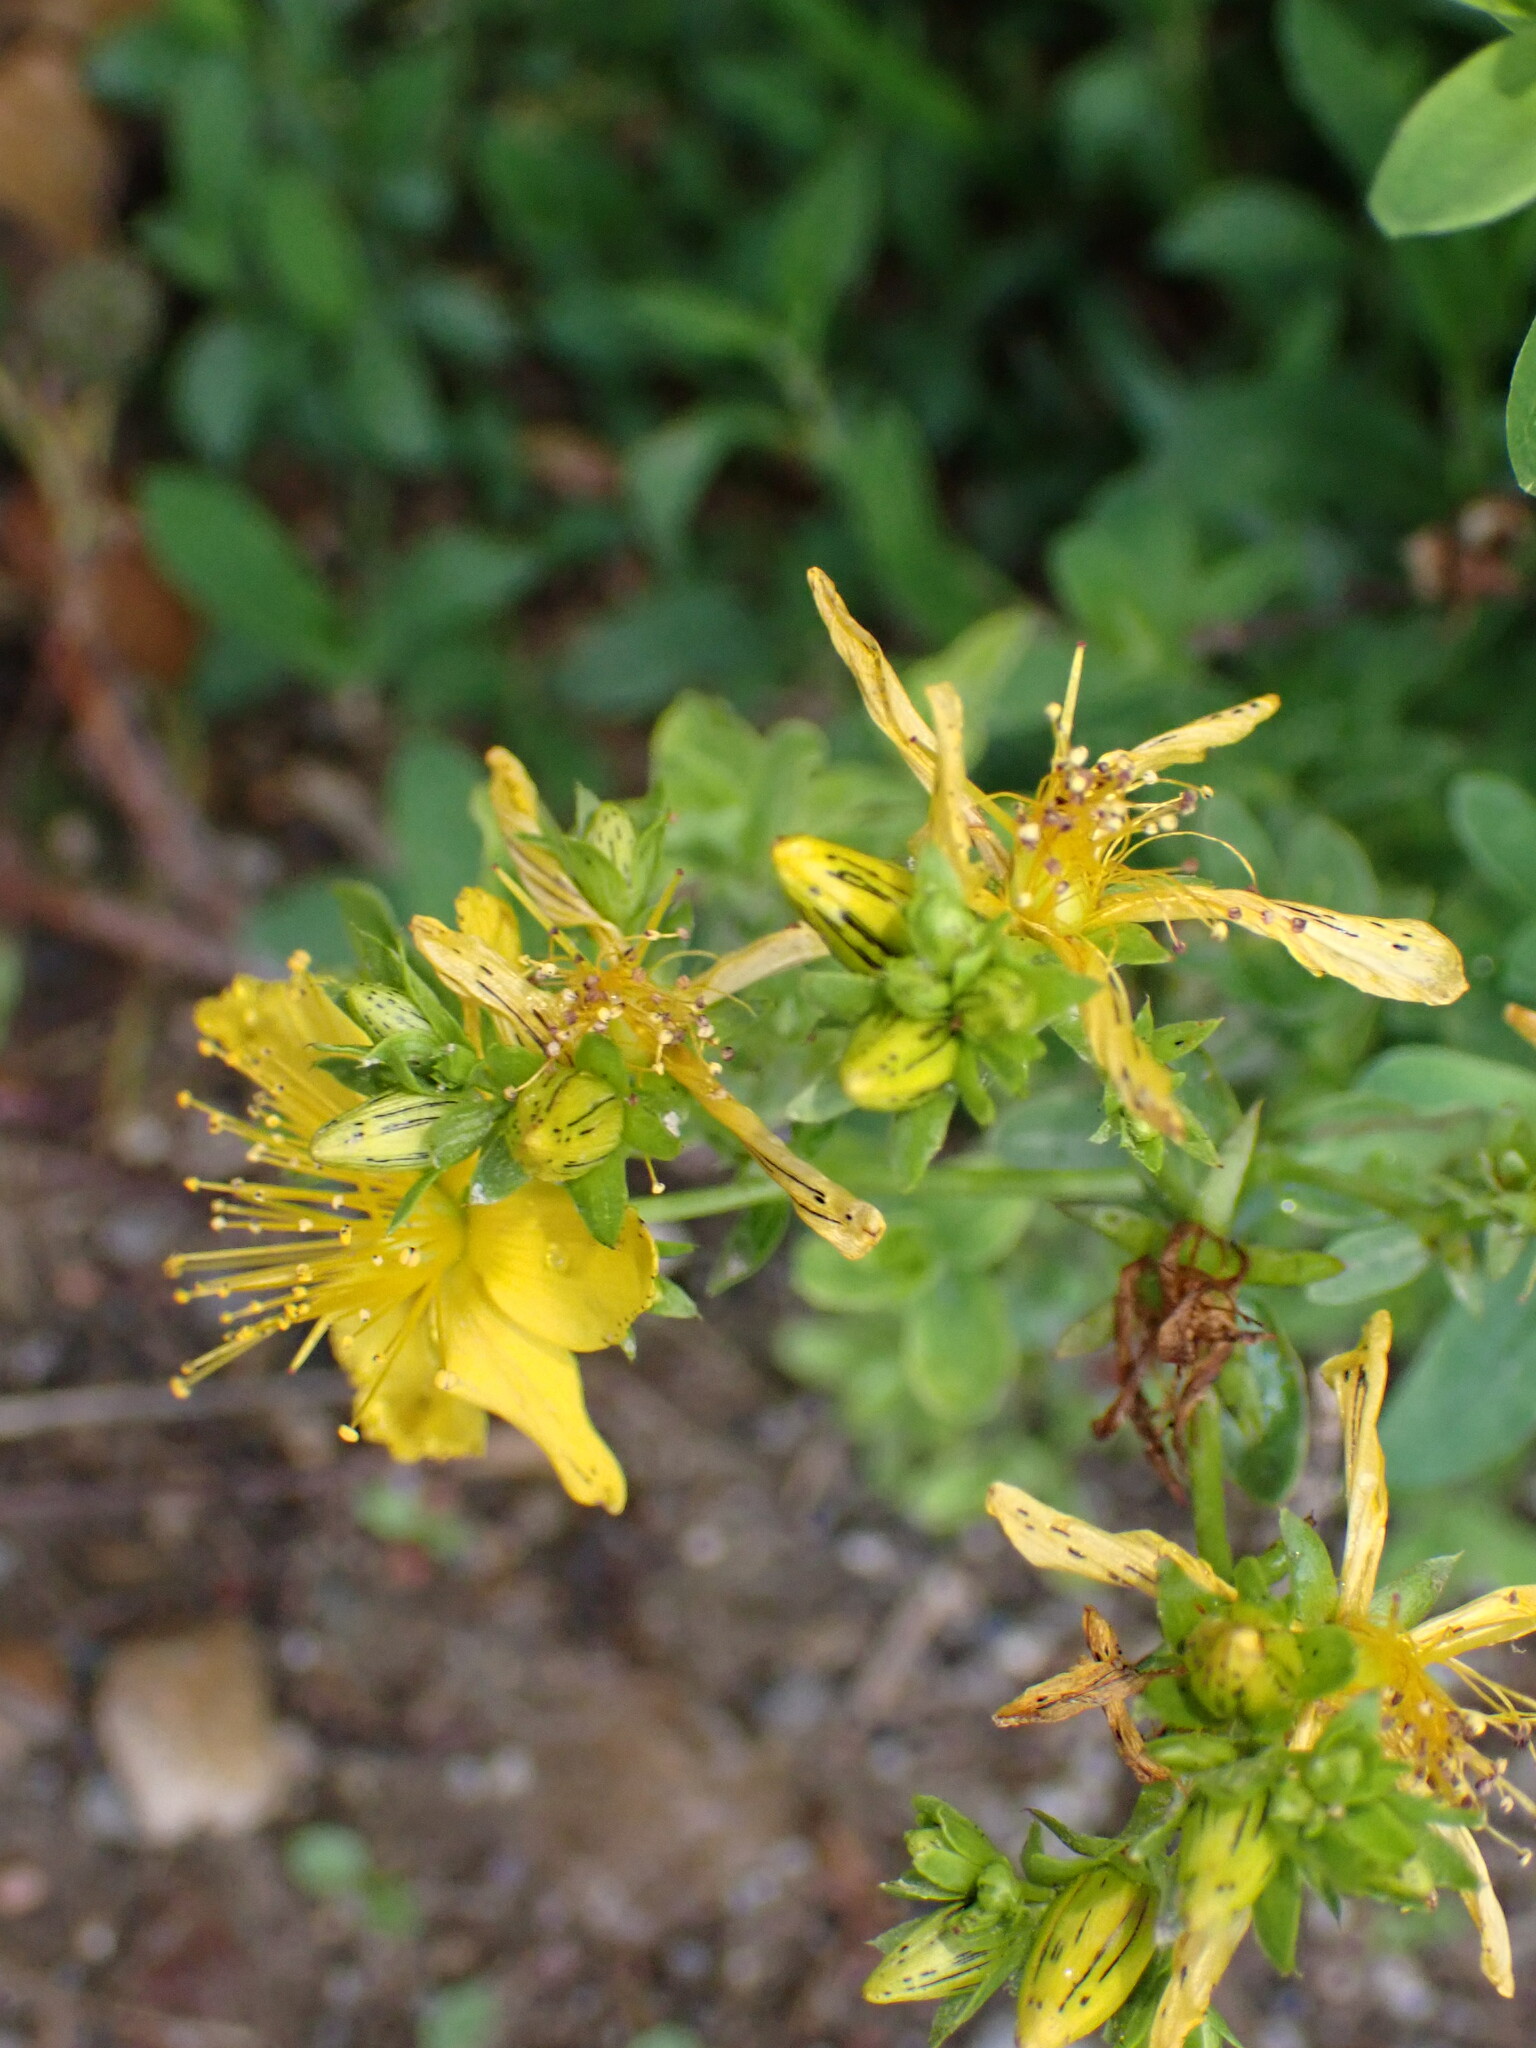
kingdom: Plantae
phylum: Tracheophyta
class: Magnoliopsida
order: Malpighiales
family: Hypericaceae
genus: Hypericum
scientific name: Hypericum perforatum
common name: Common st. johnswort
